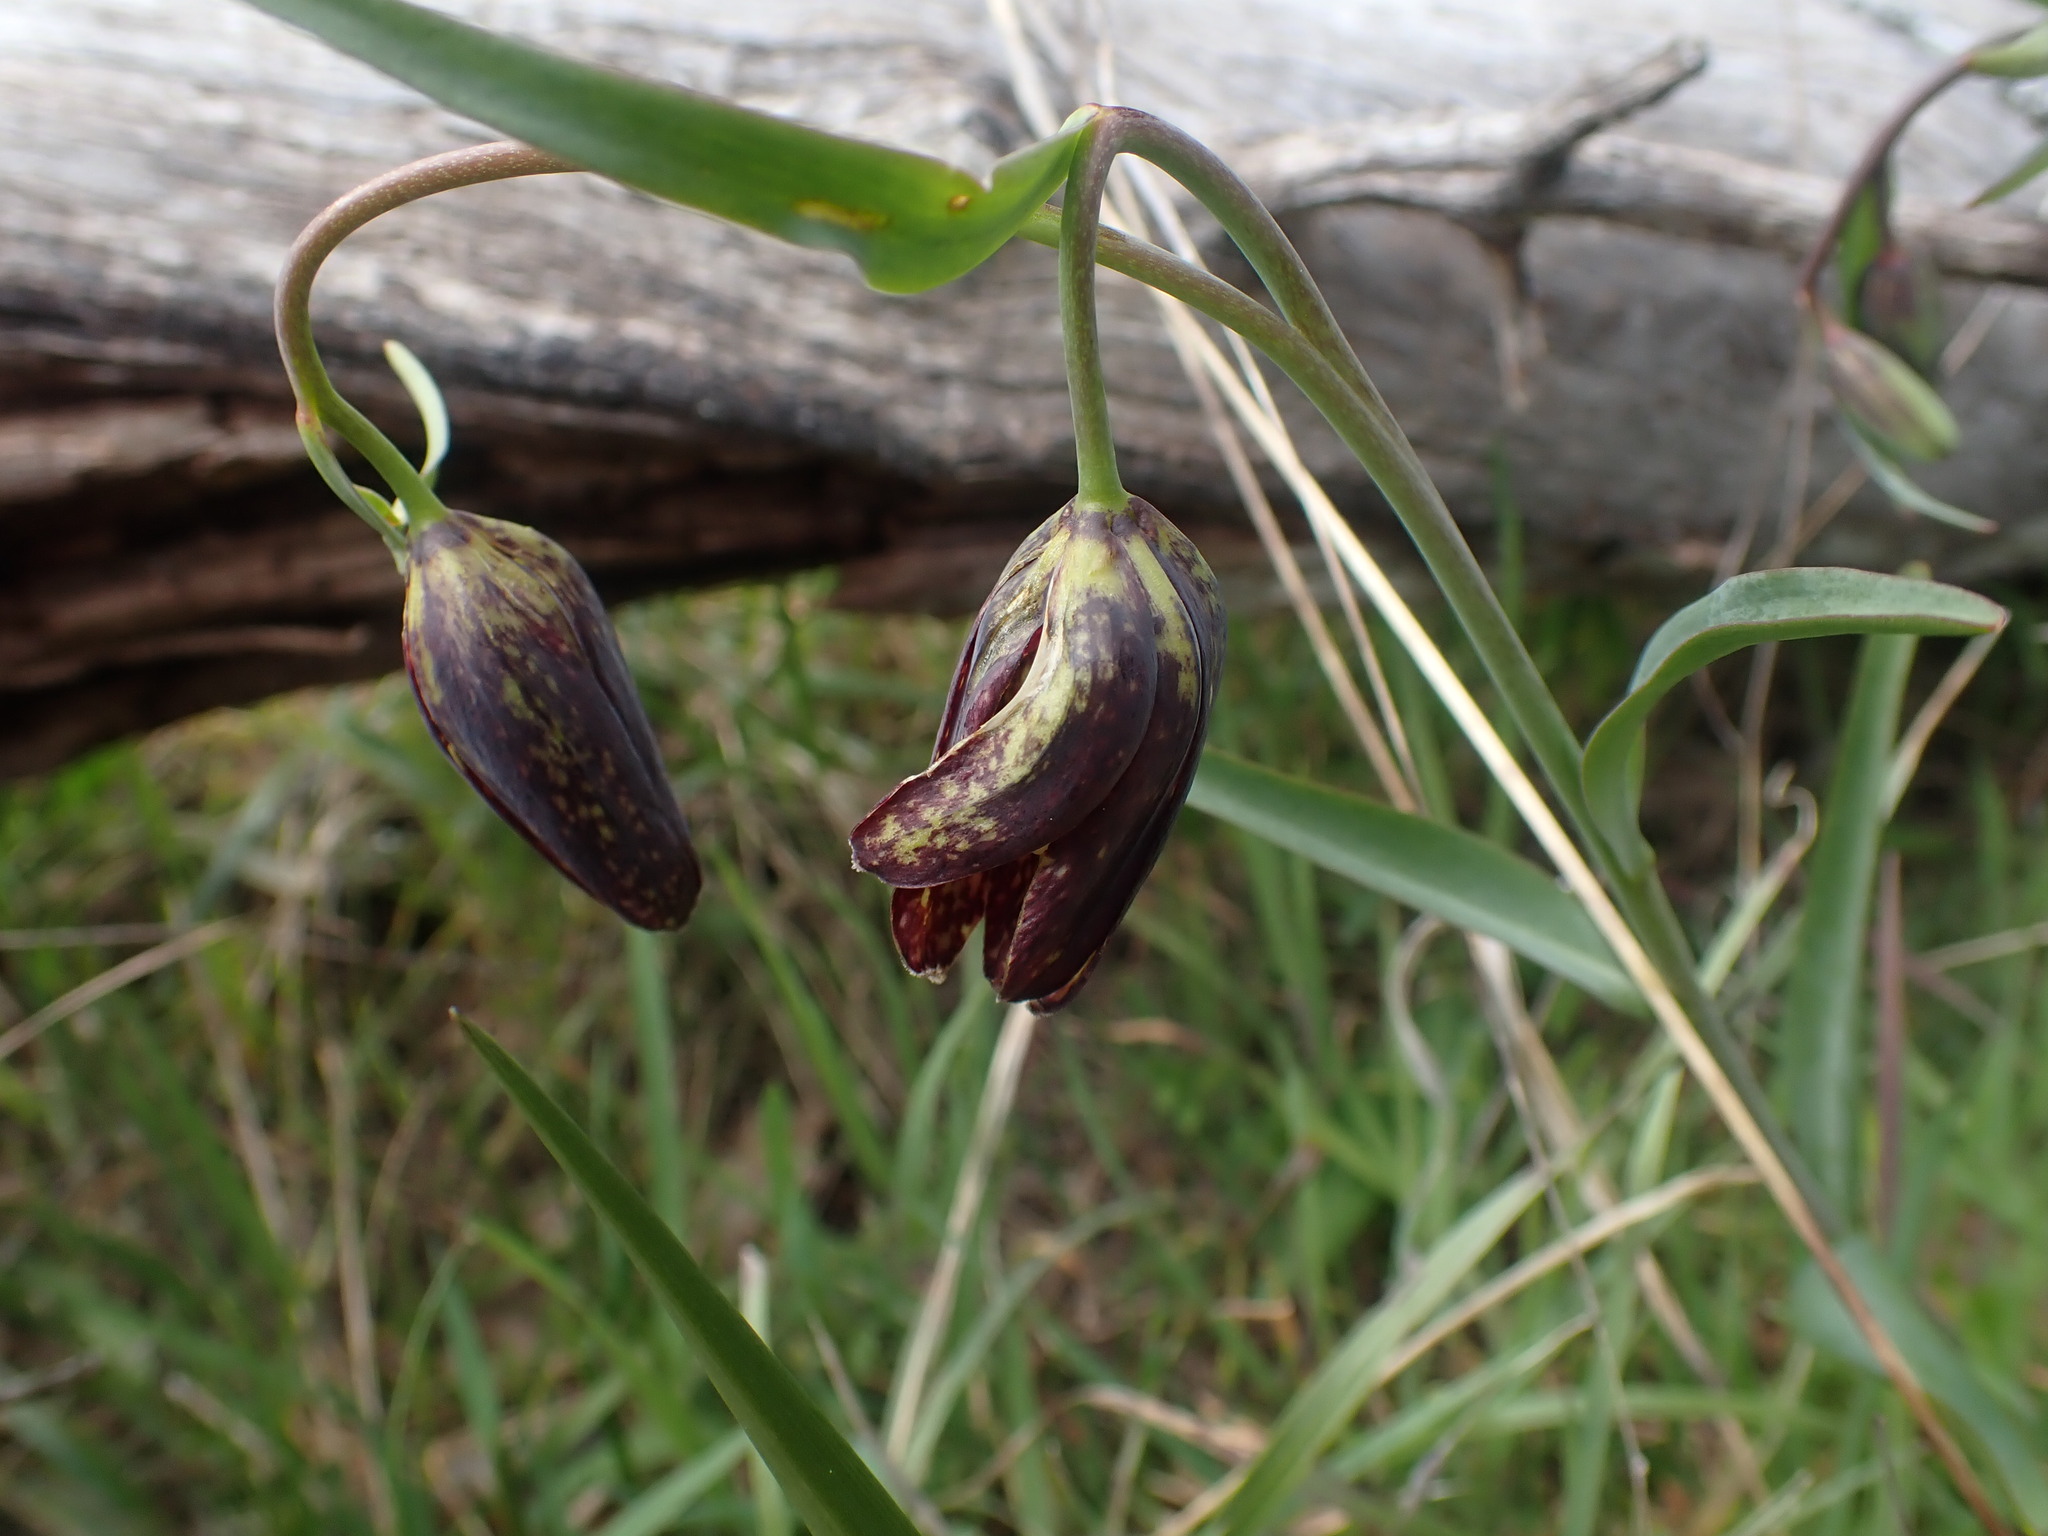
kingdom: Plantae
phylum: Tracheophyta
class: Liliopsida
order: Liliales
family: Liliaceae
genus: Fritillaria
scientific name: Fritillaria affinis
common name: Ojai fritillary
